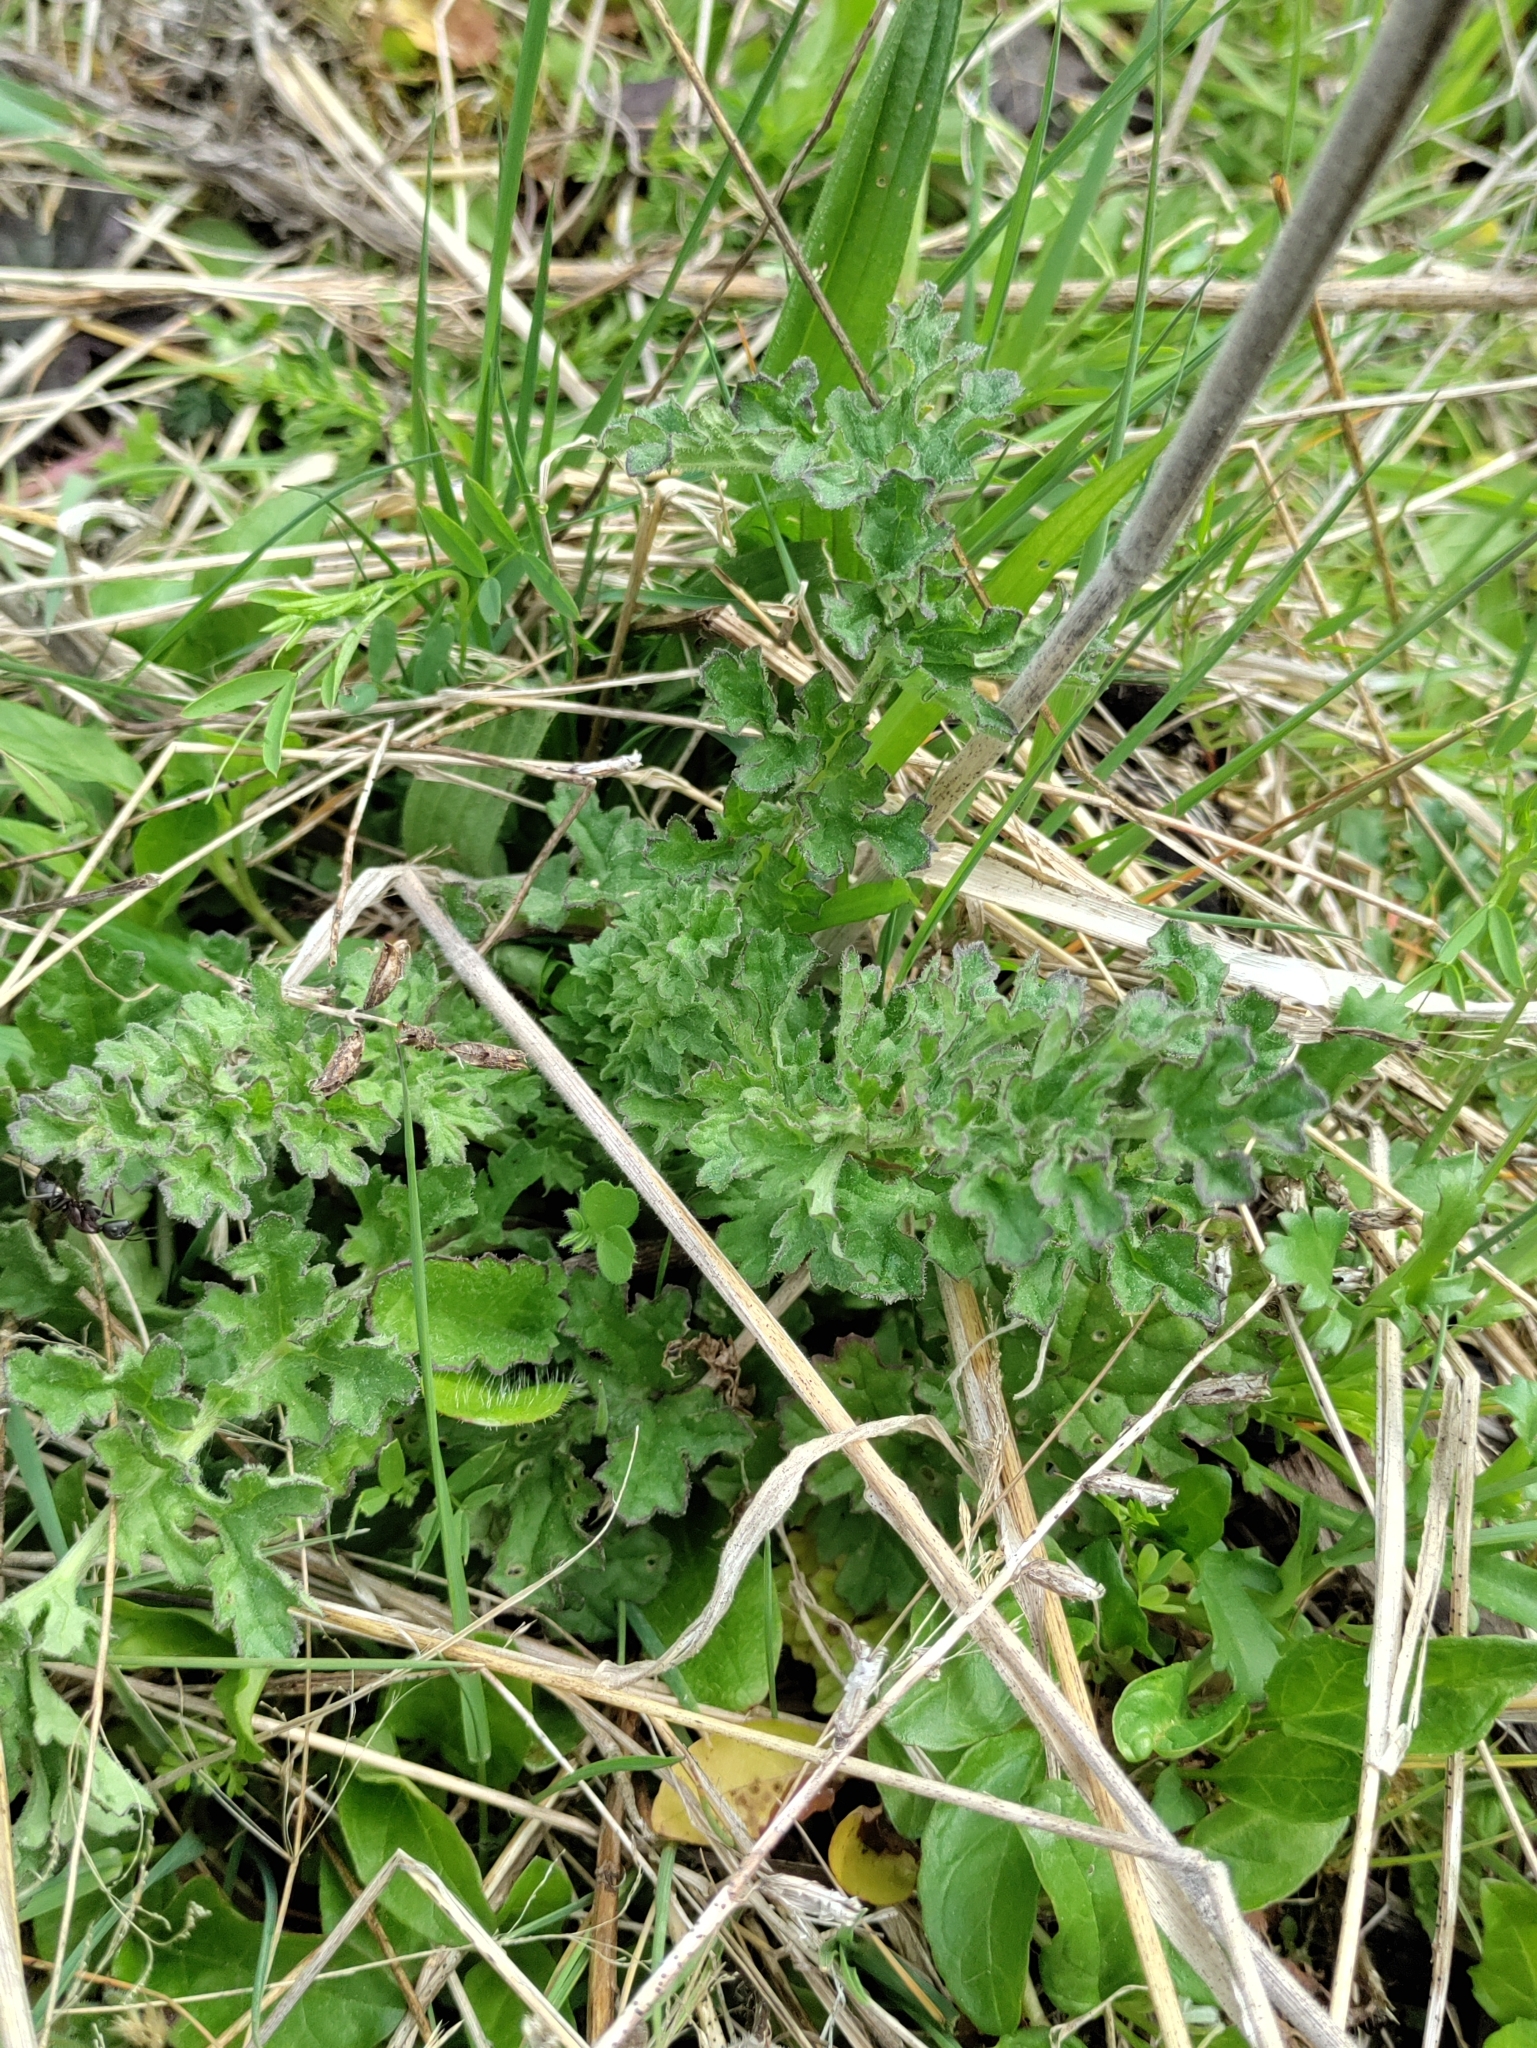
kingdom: Plantae
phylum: Tracheophyta
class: Magnoliopsida
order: Asterales
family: Asteraceae
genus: Jacobaea
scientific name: Jacobaea vulgaris
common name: Stinking willie
